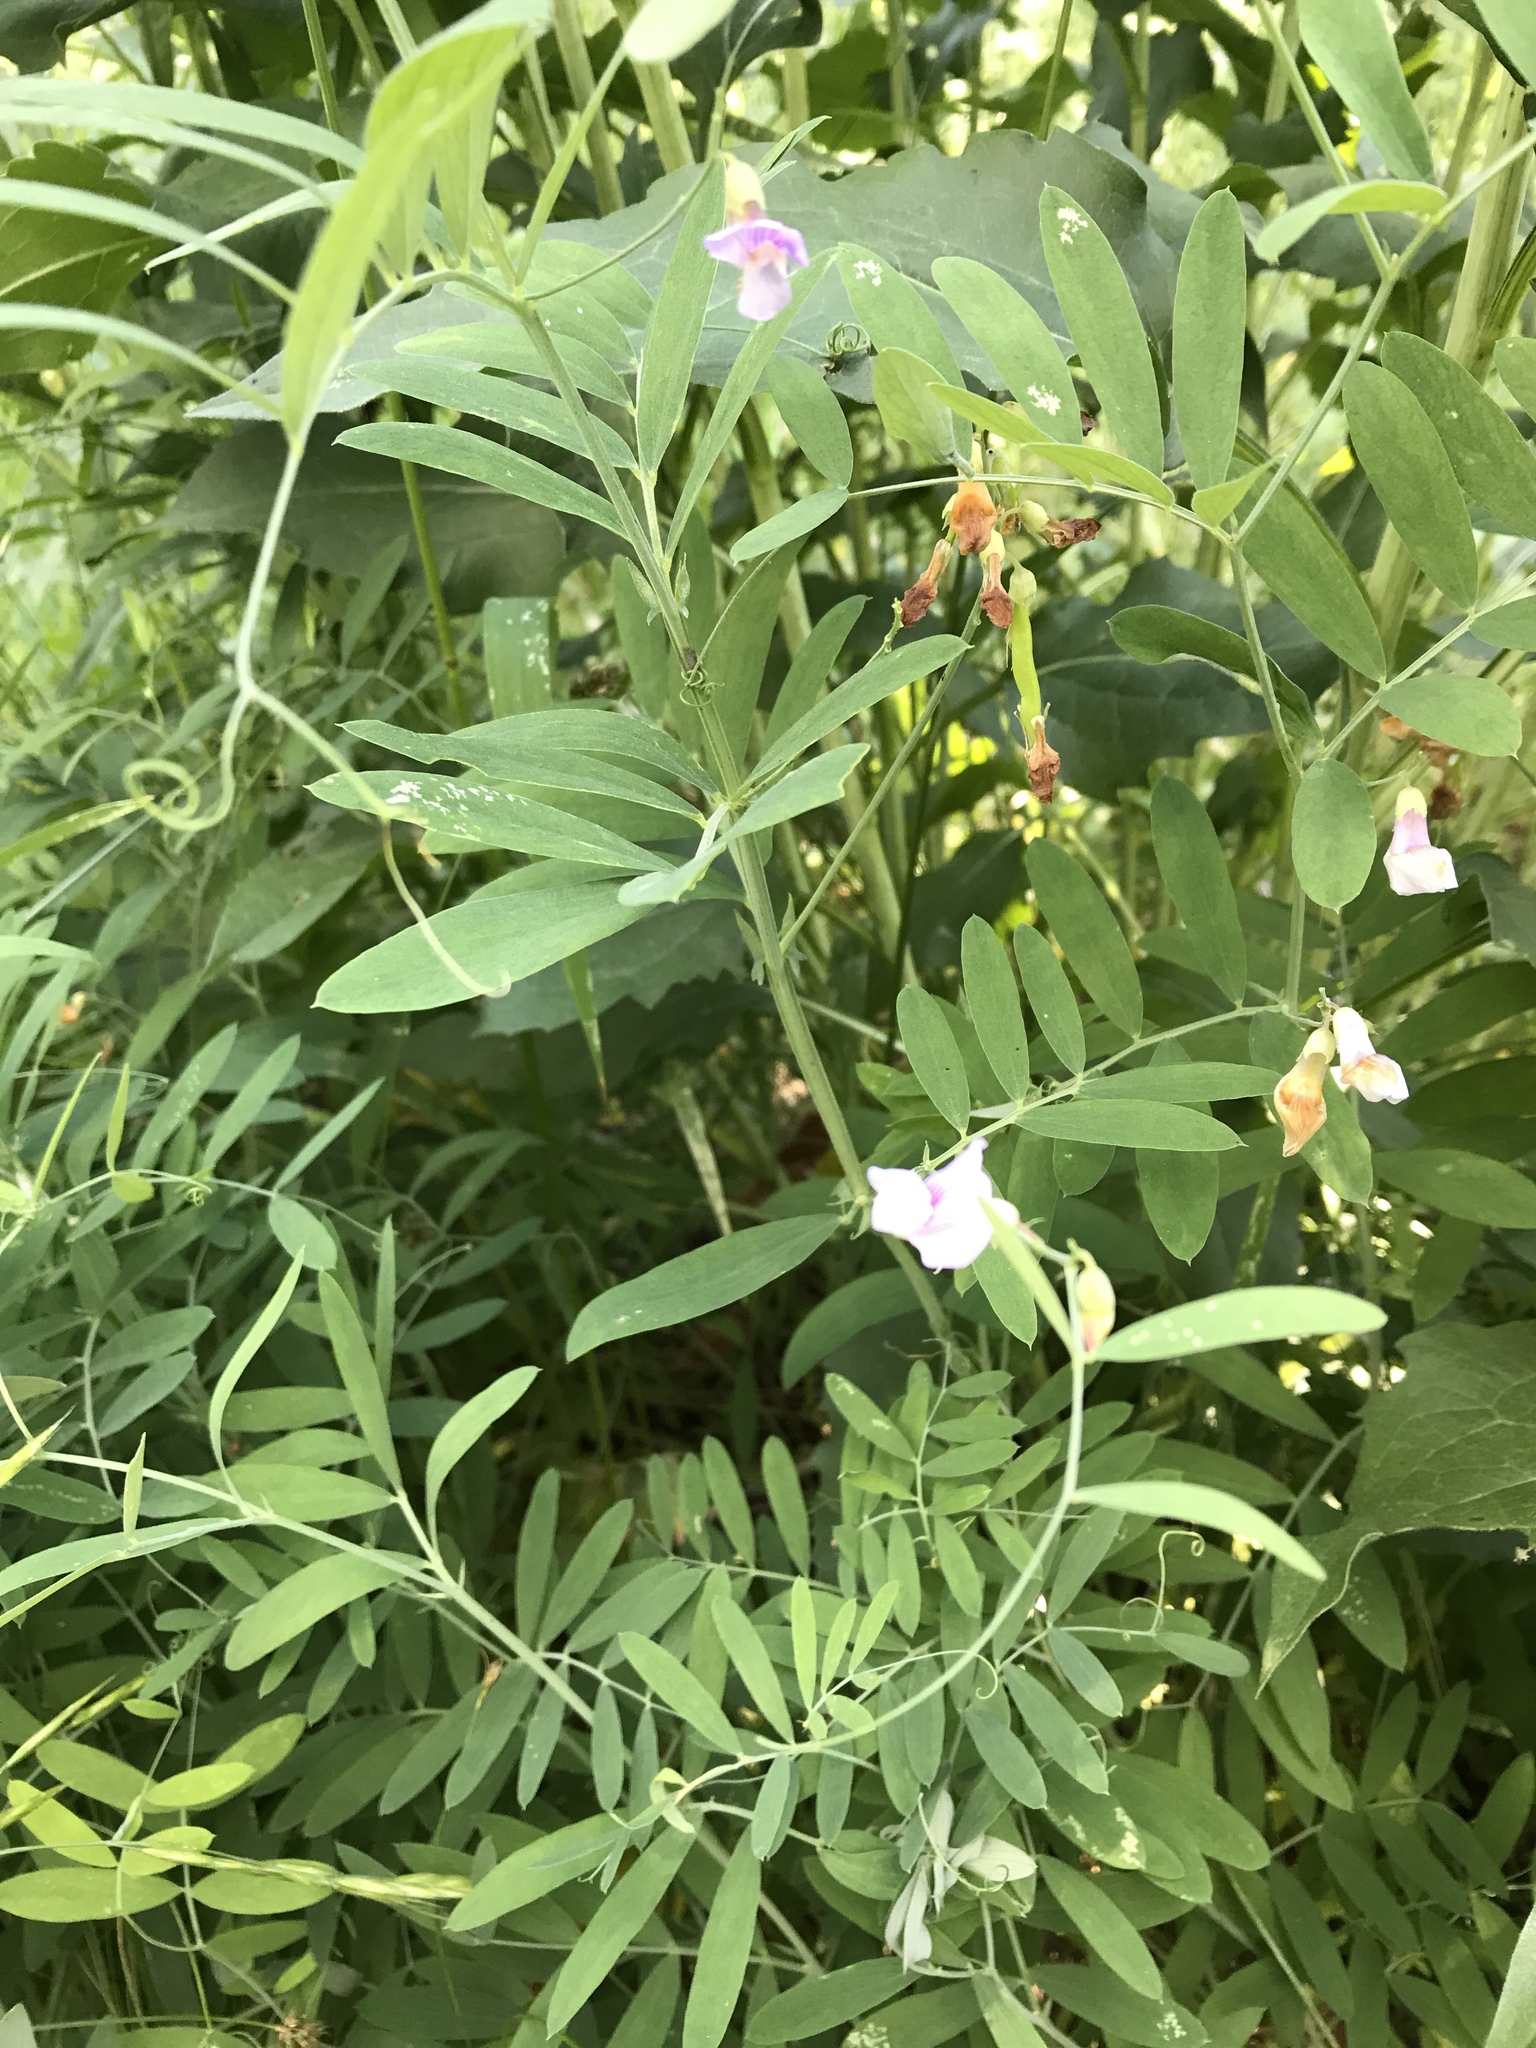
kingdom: Plantae
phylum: Tracheophyta
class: Magnoliopsida
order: Fabales
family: Fabaceae
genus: Vicia
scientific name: Vicia americana
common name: American vetch
